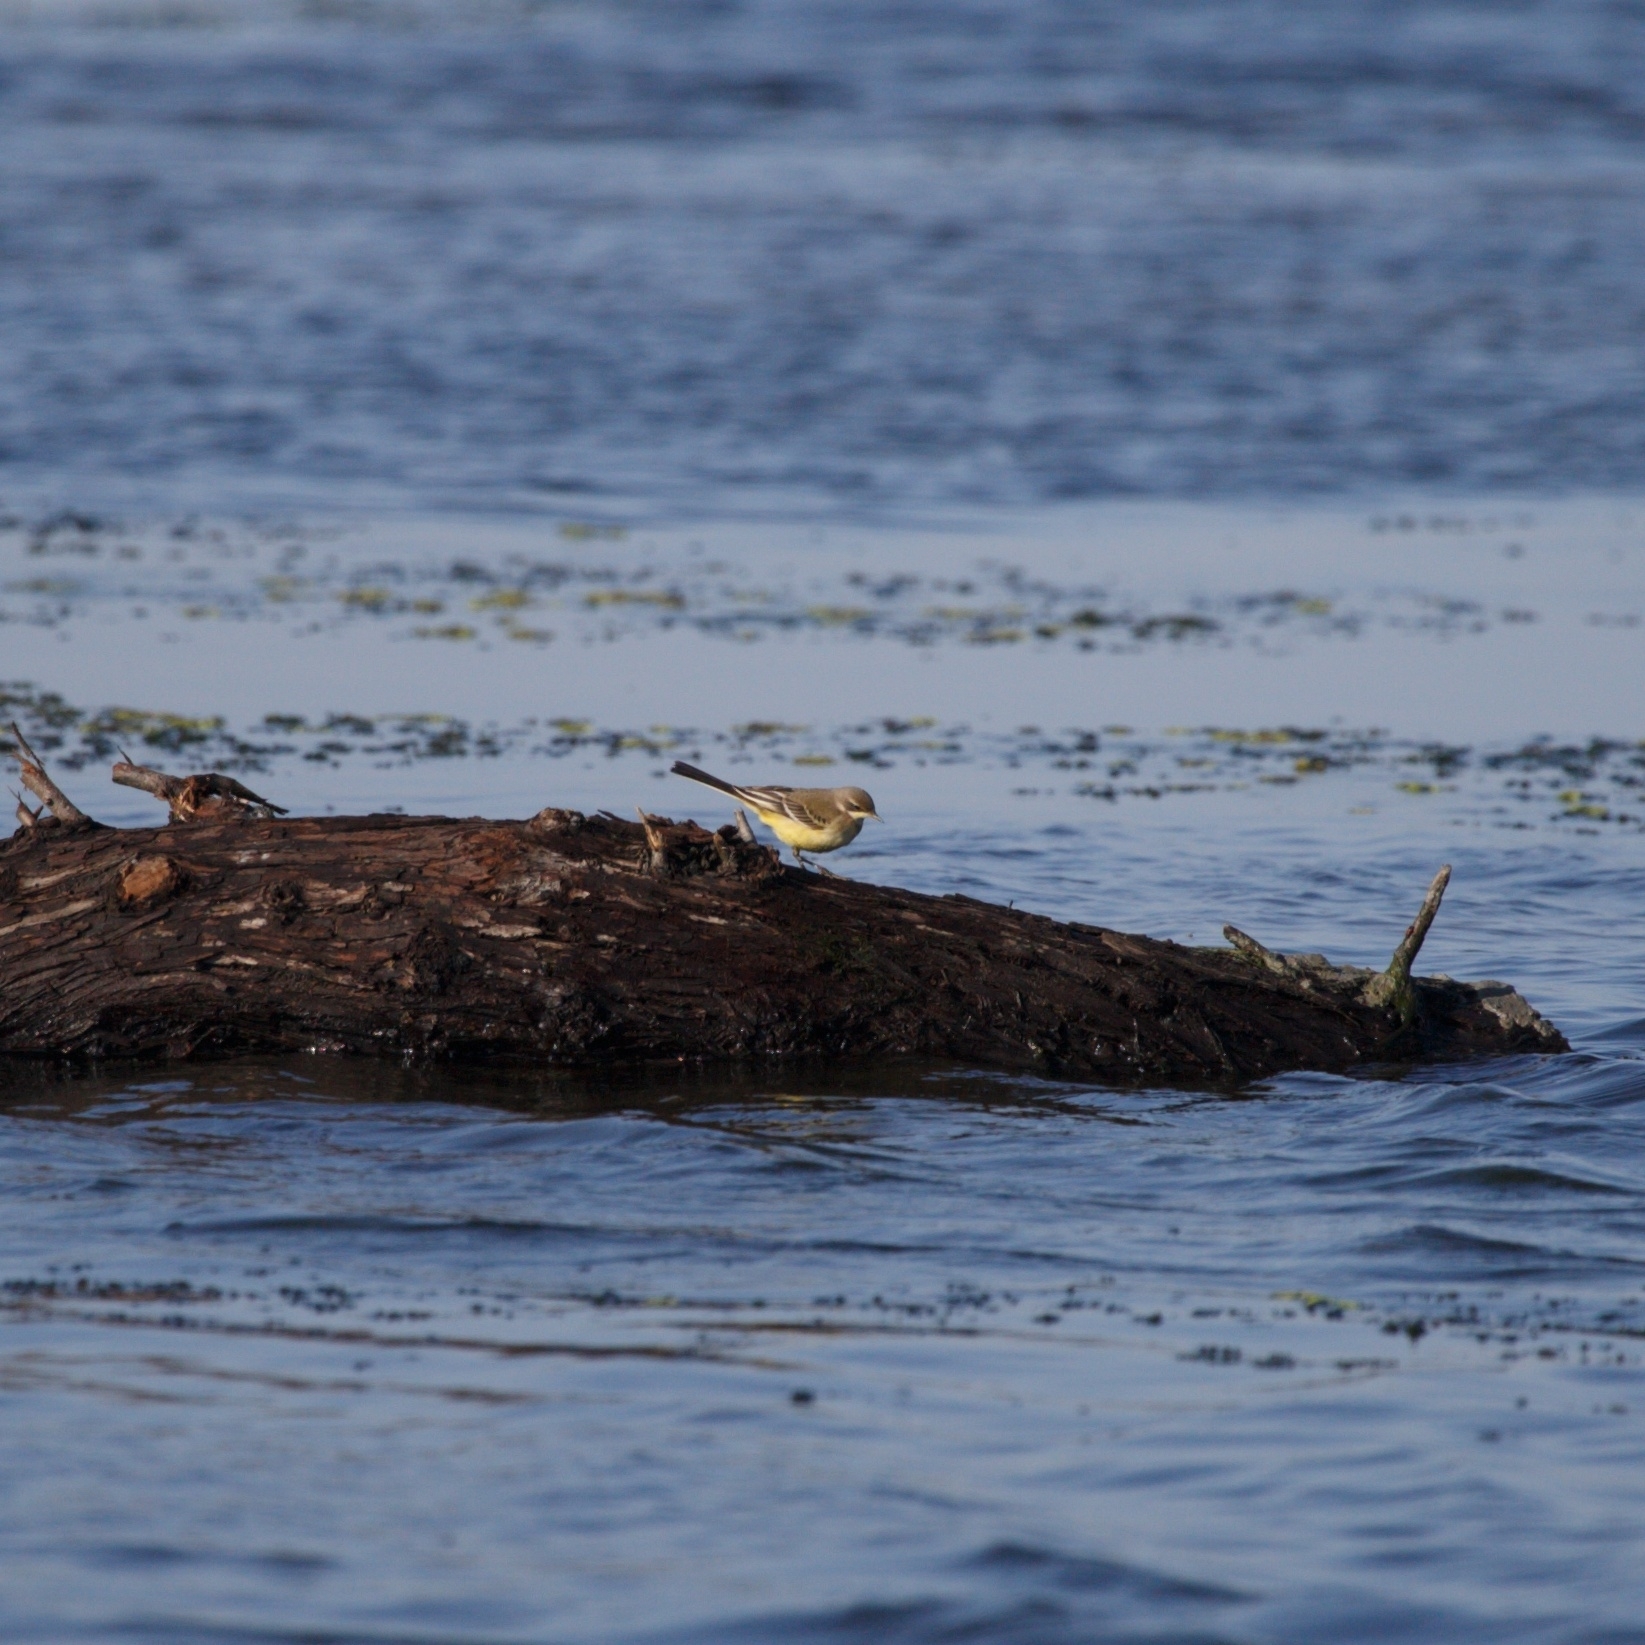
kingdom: Animalia
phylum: Chordata
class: Aves
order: Passeriformes
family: Motacillidae
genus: Motacilla
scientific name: Motacilla flava
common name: Western yellow wagtail
